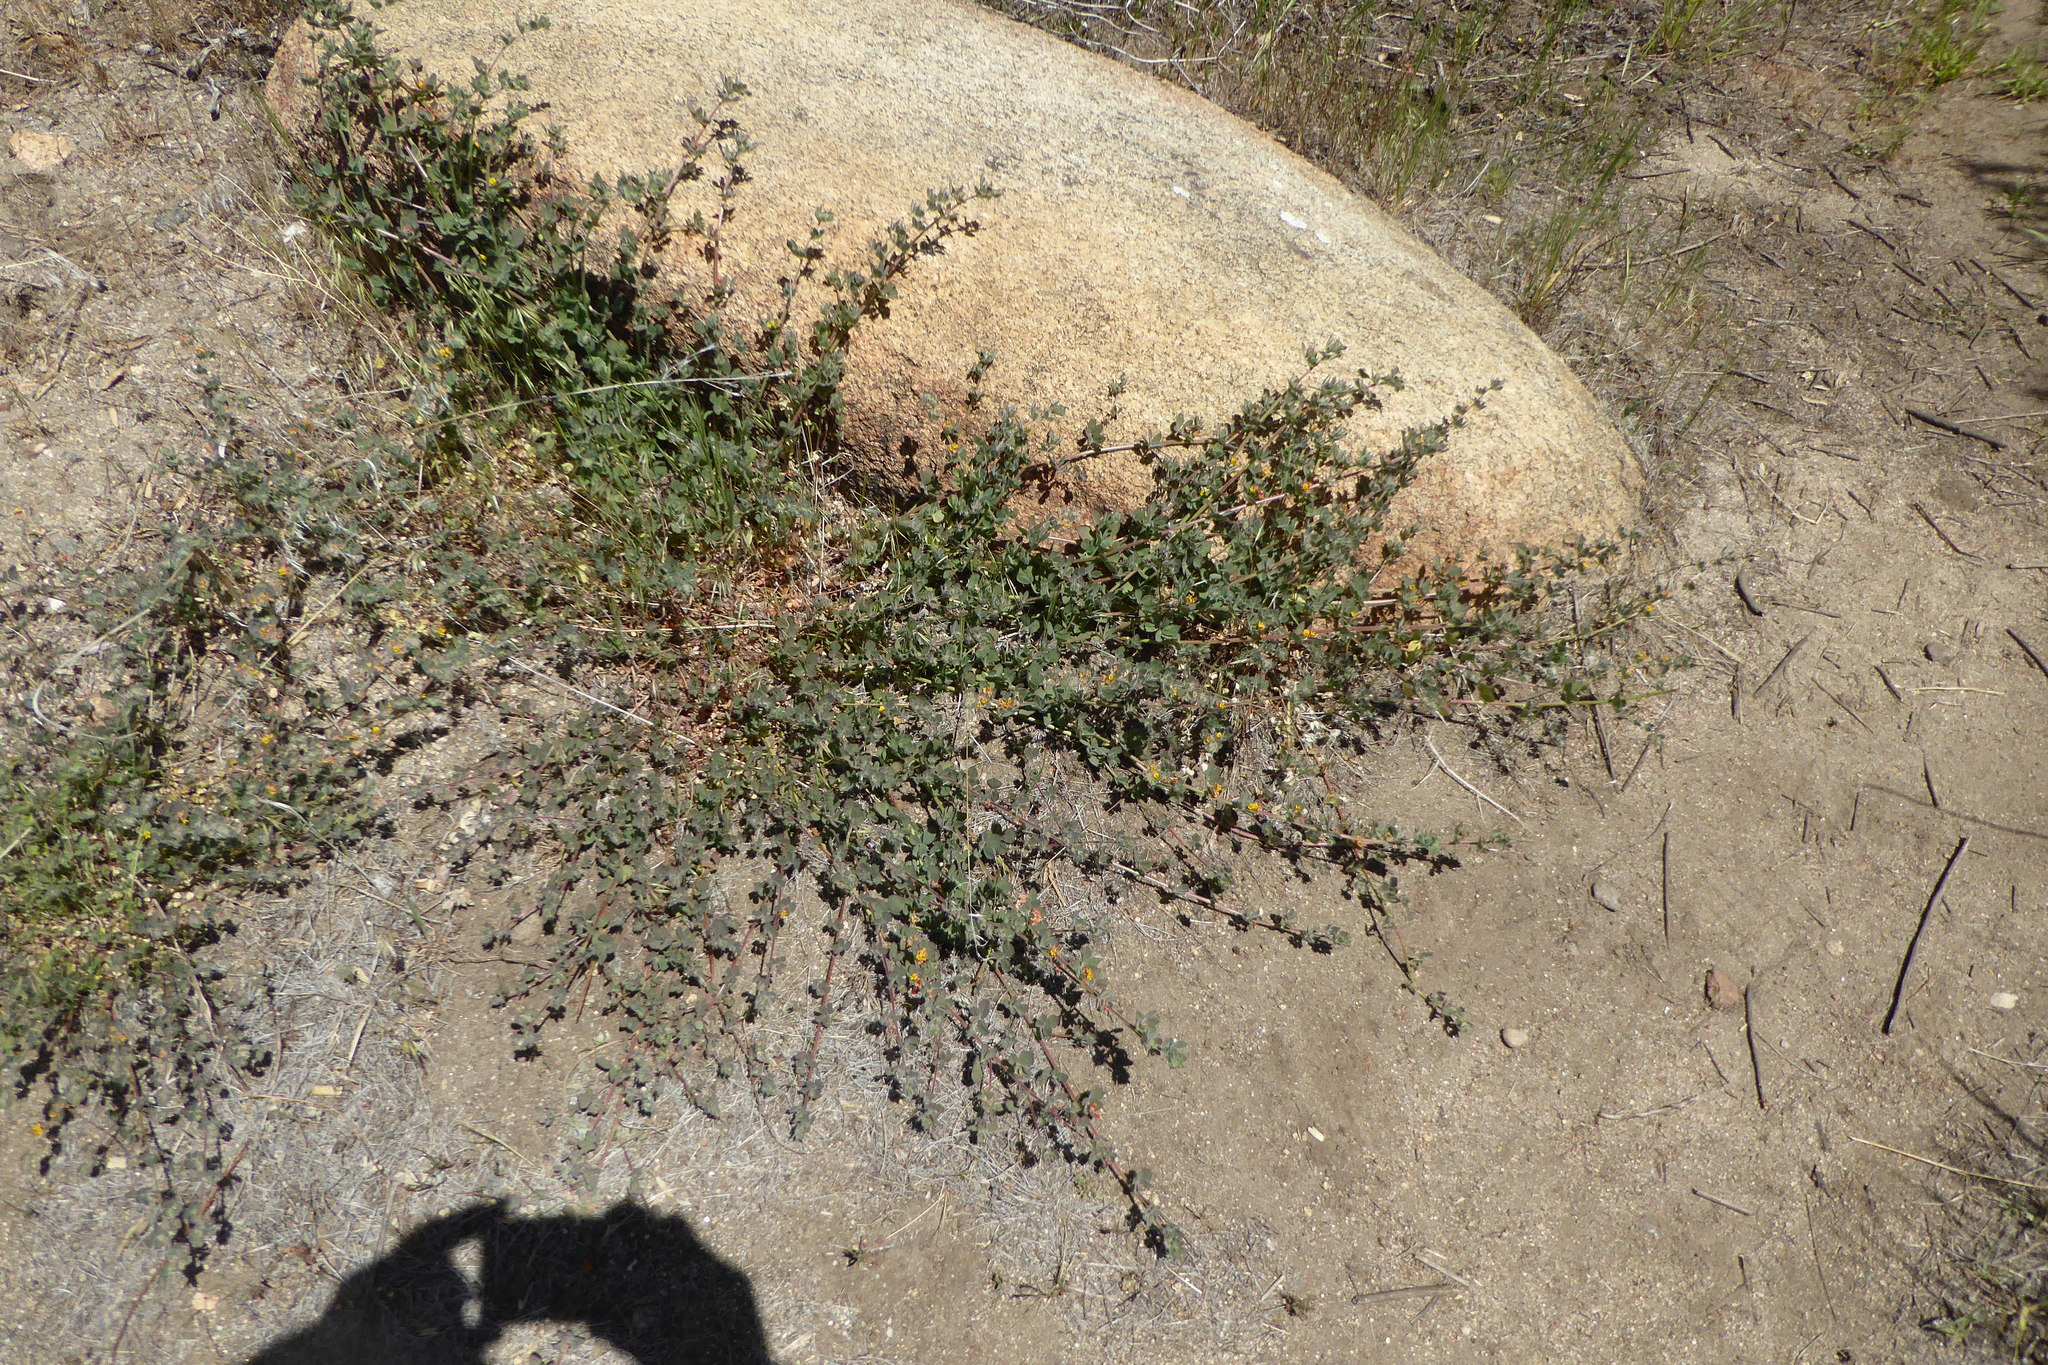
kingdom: Plantae
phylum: Tracheophyta
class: Magnoliopsida
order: Fabales
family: Fabaceae
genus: Acmispon
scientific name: Acmispon tomentosus
